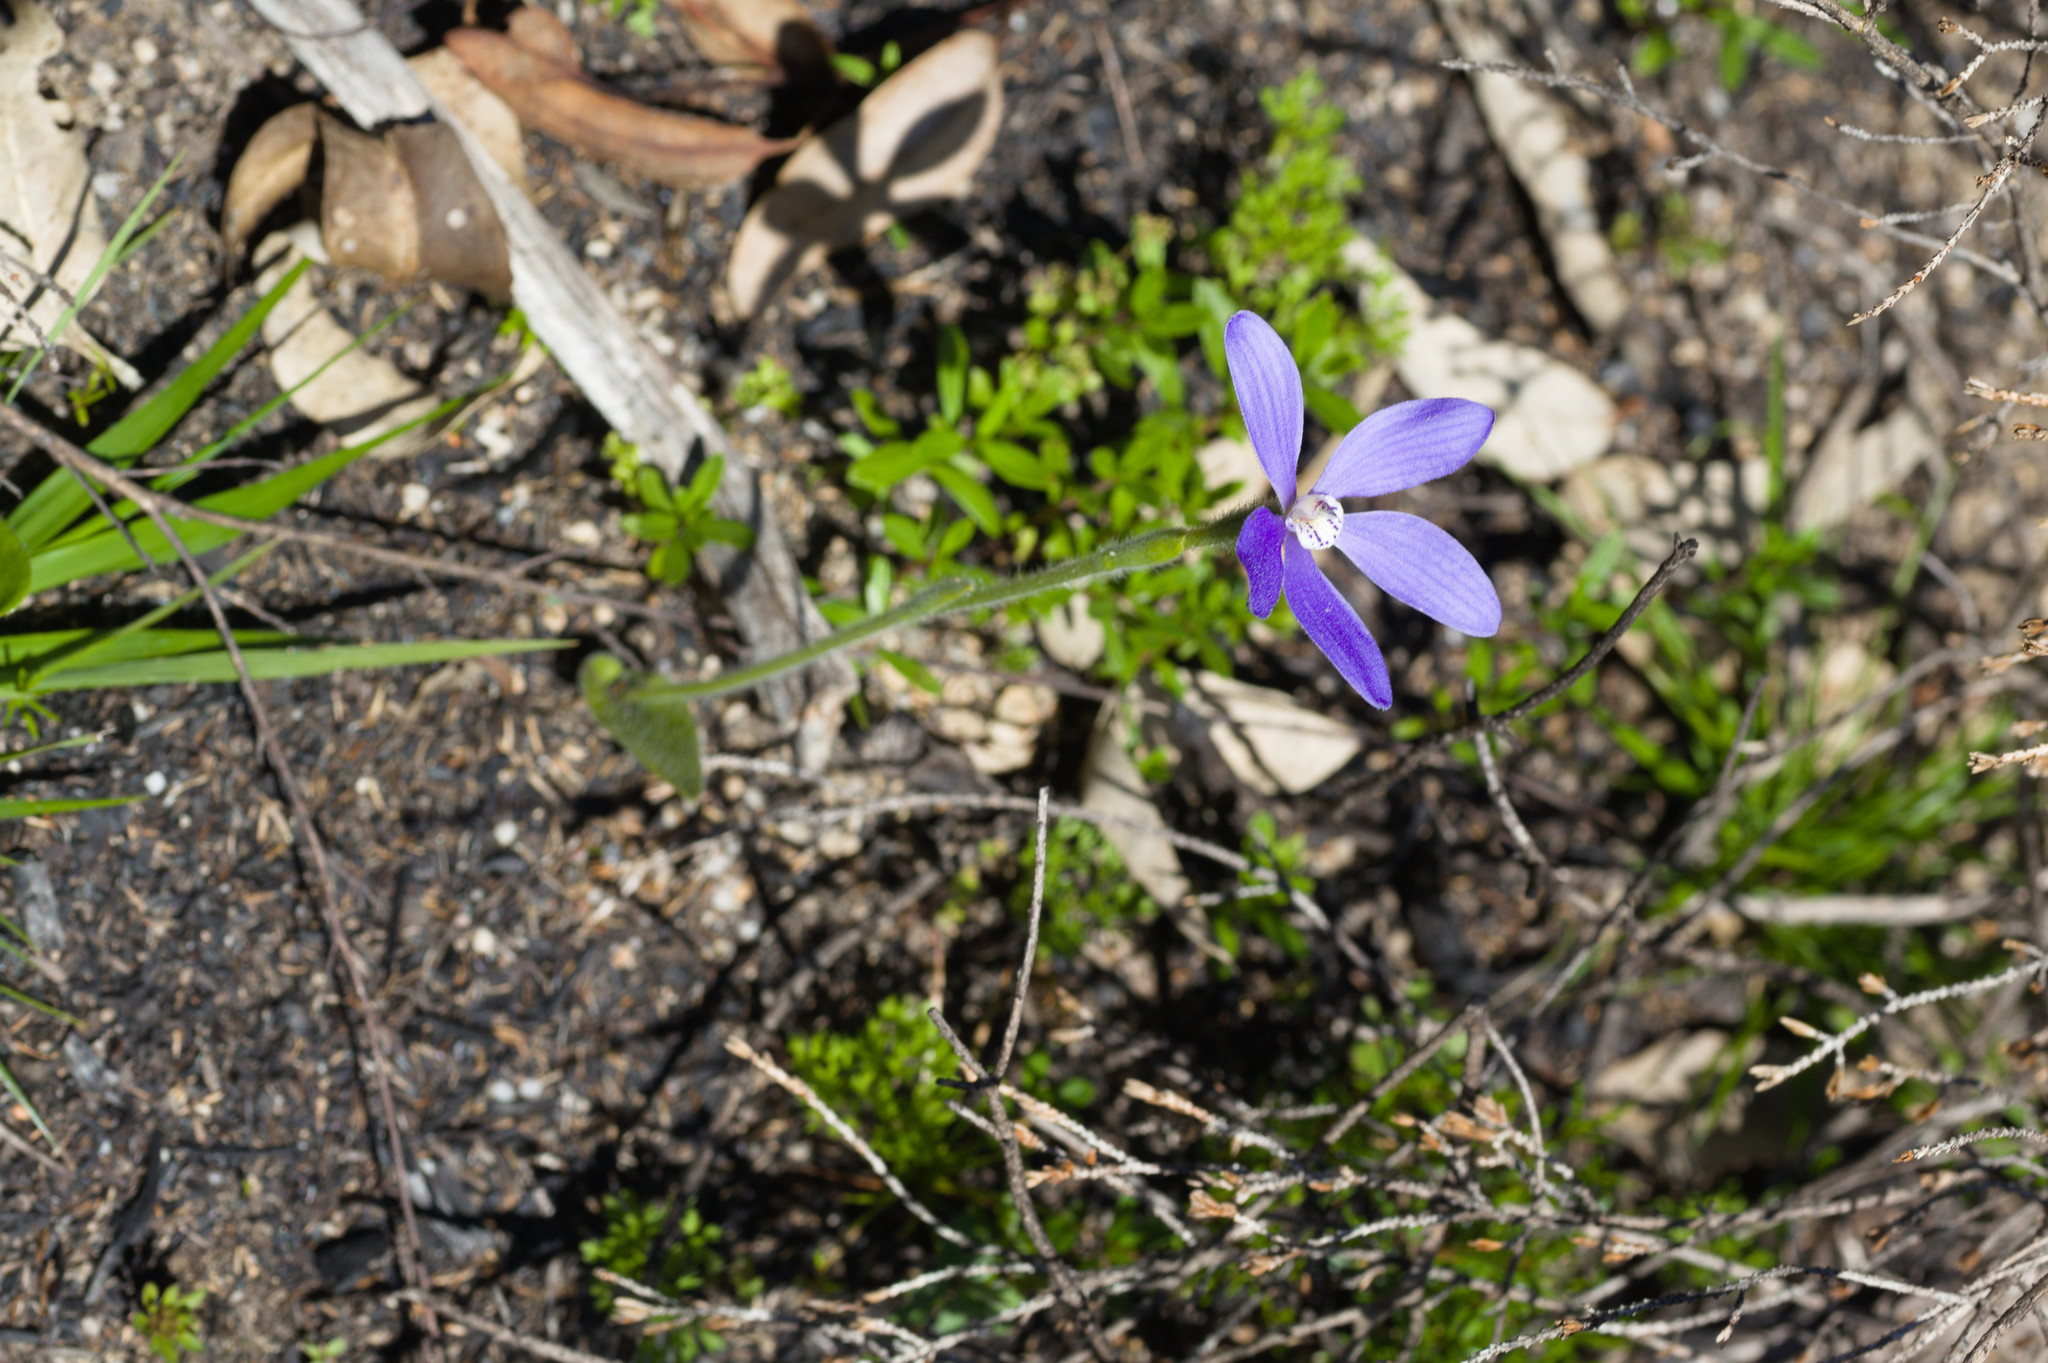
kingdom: Plantae
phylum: Tracheophyta
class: Liliopsida
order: Asparagales
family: Orchidaceae
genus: Caladenia
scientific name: Caladenia gemmata
